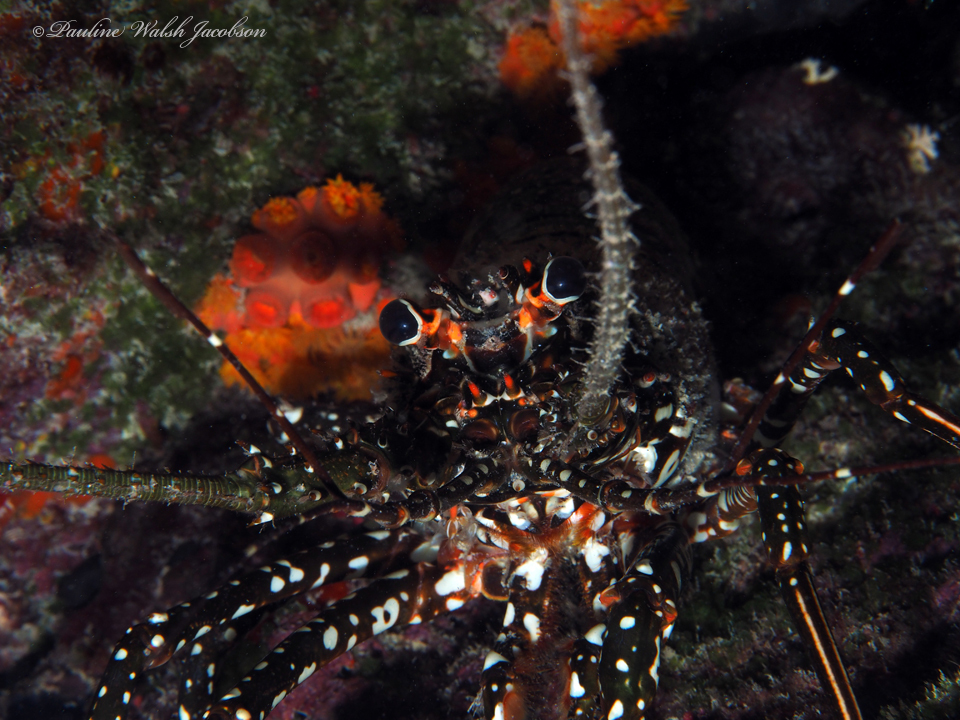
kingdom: Animalia
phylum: Arthropoda
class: Malacostraca
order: Decapoda
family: Palinuridae
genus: Panulirus
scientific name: Panulirus guttatus
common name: Spotted spiny lobster
